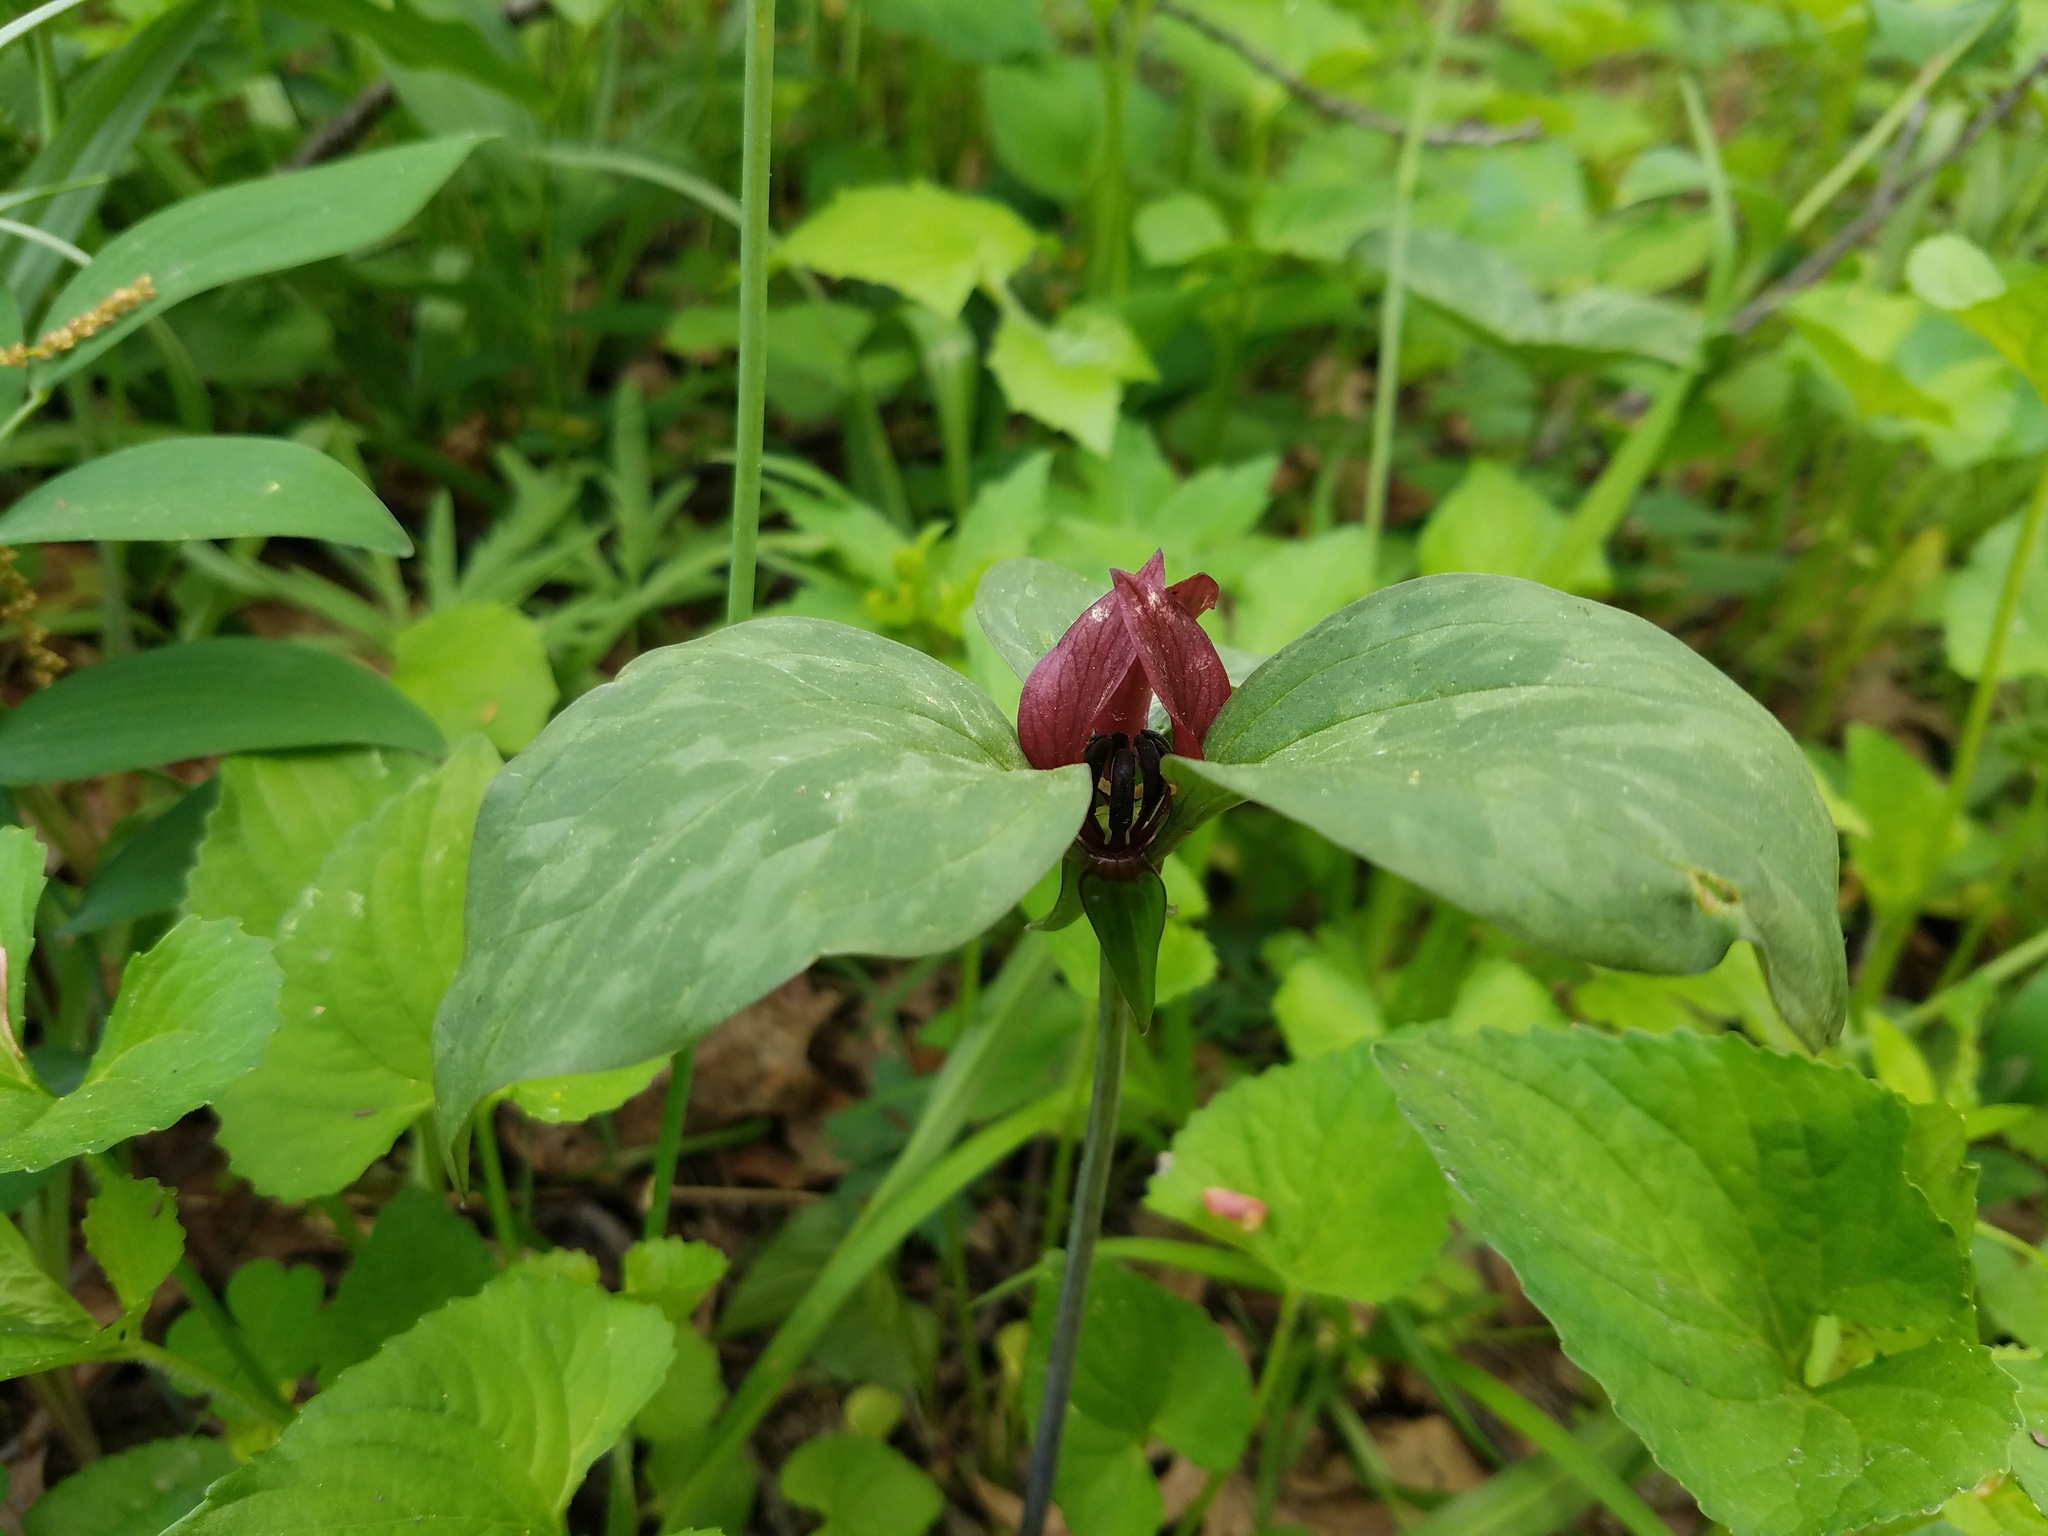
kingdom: Plantae
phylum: Tracheophyta
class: Liliopsida
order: Liliales
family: Melanthiaceae
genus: Trillium
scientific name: Trillium recurvatum
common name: Bloody butcher
